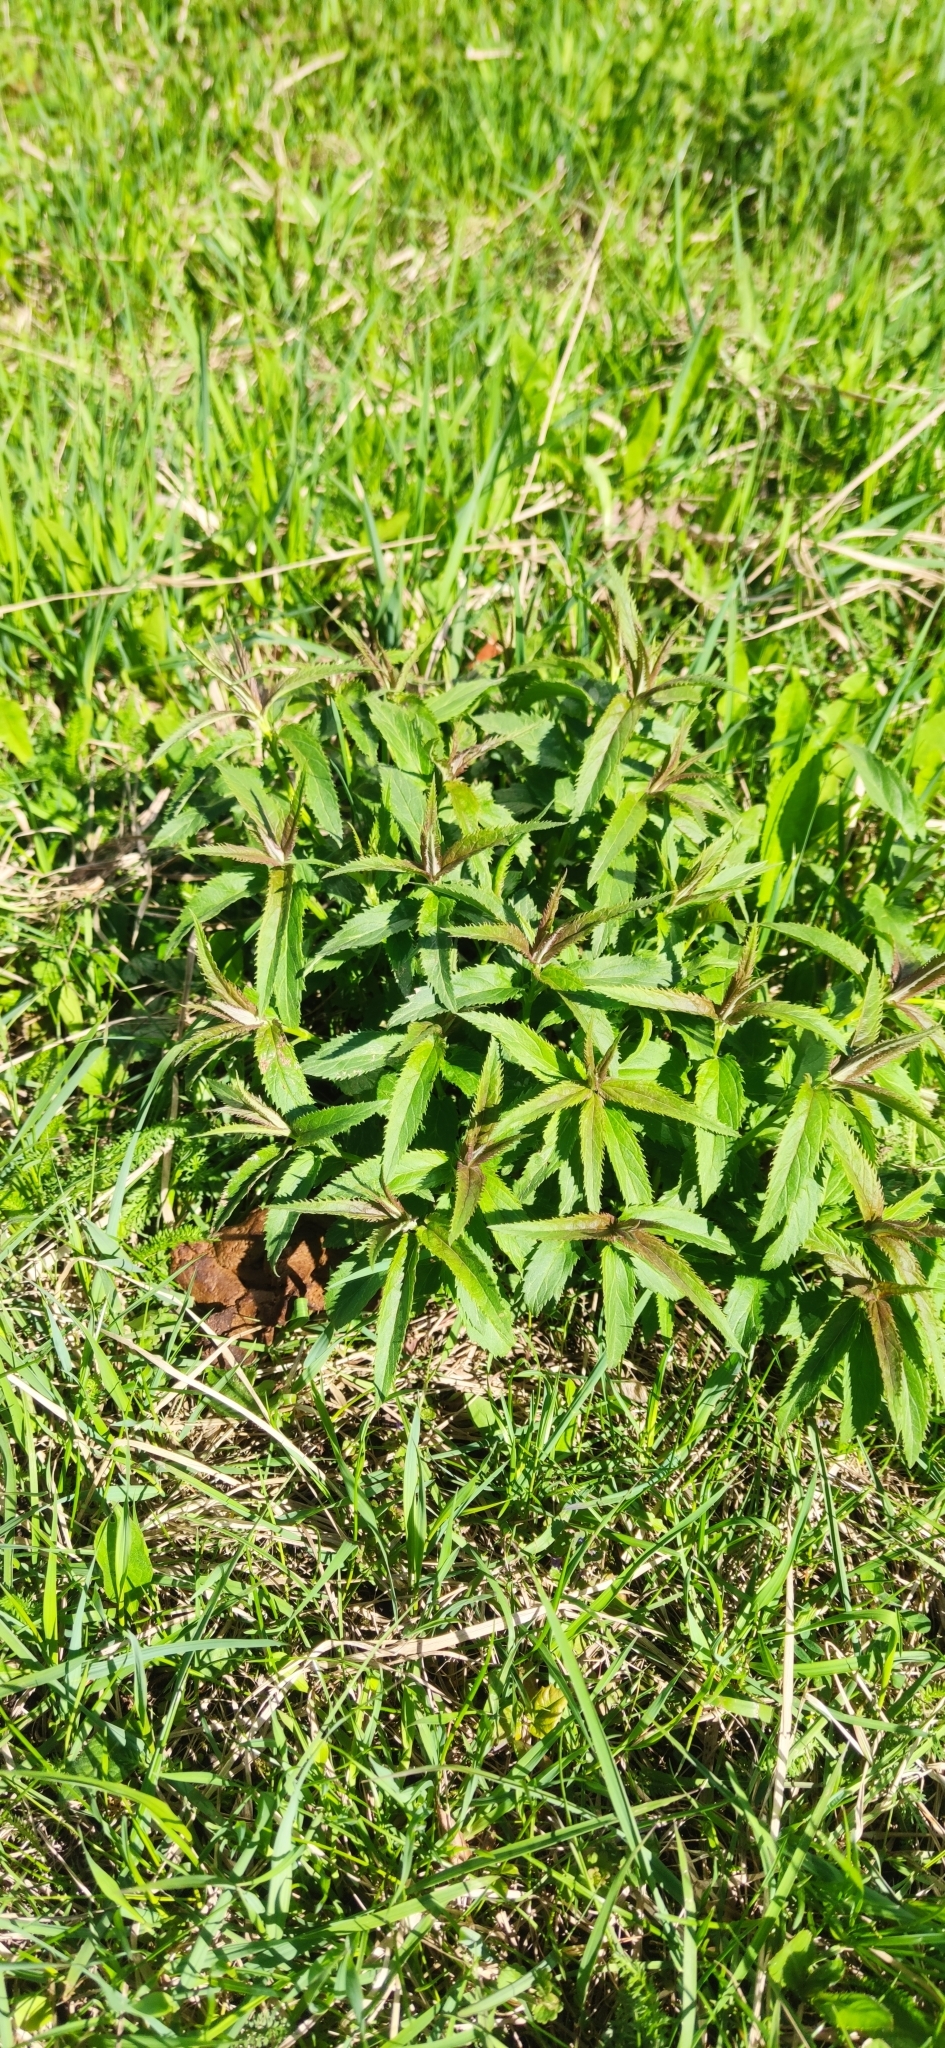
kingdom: Plantae
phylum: Tracheophyta
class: Magnoliopsida
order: Lamiales
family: Plantaginaceae
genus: Veronica
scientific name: Veronica longifolia
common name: Garden speedwell
